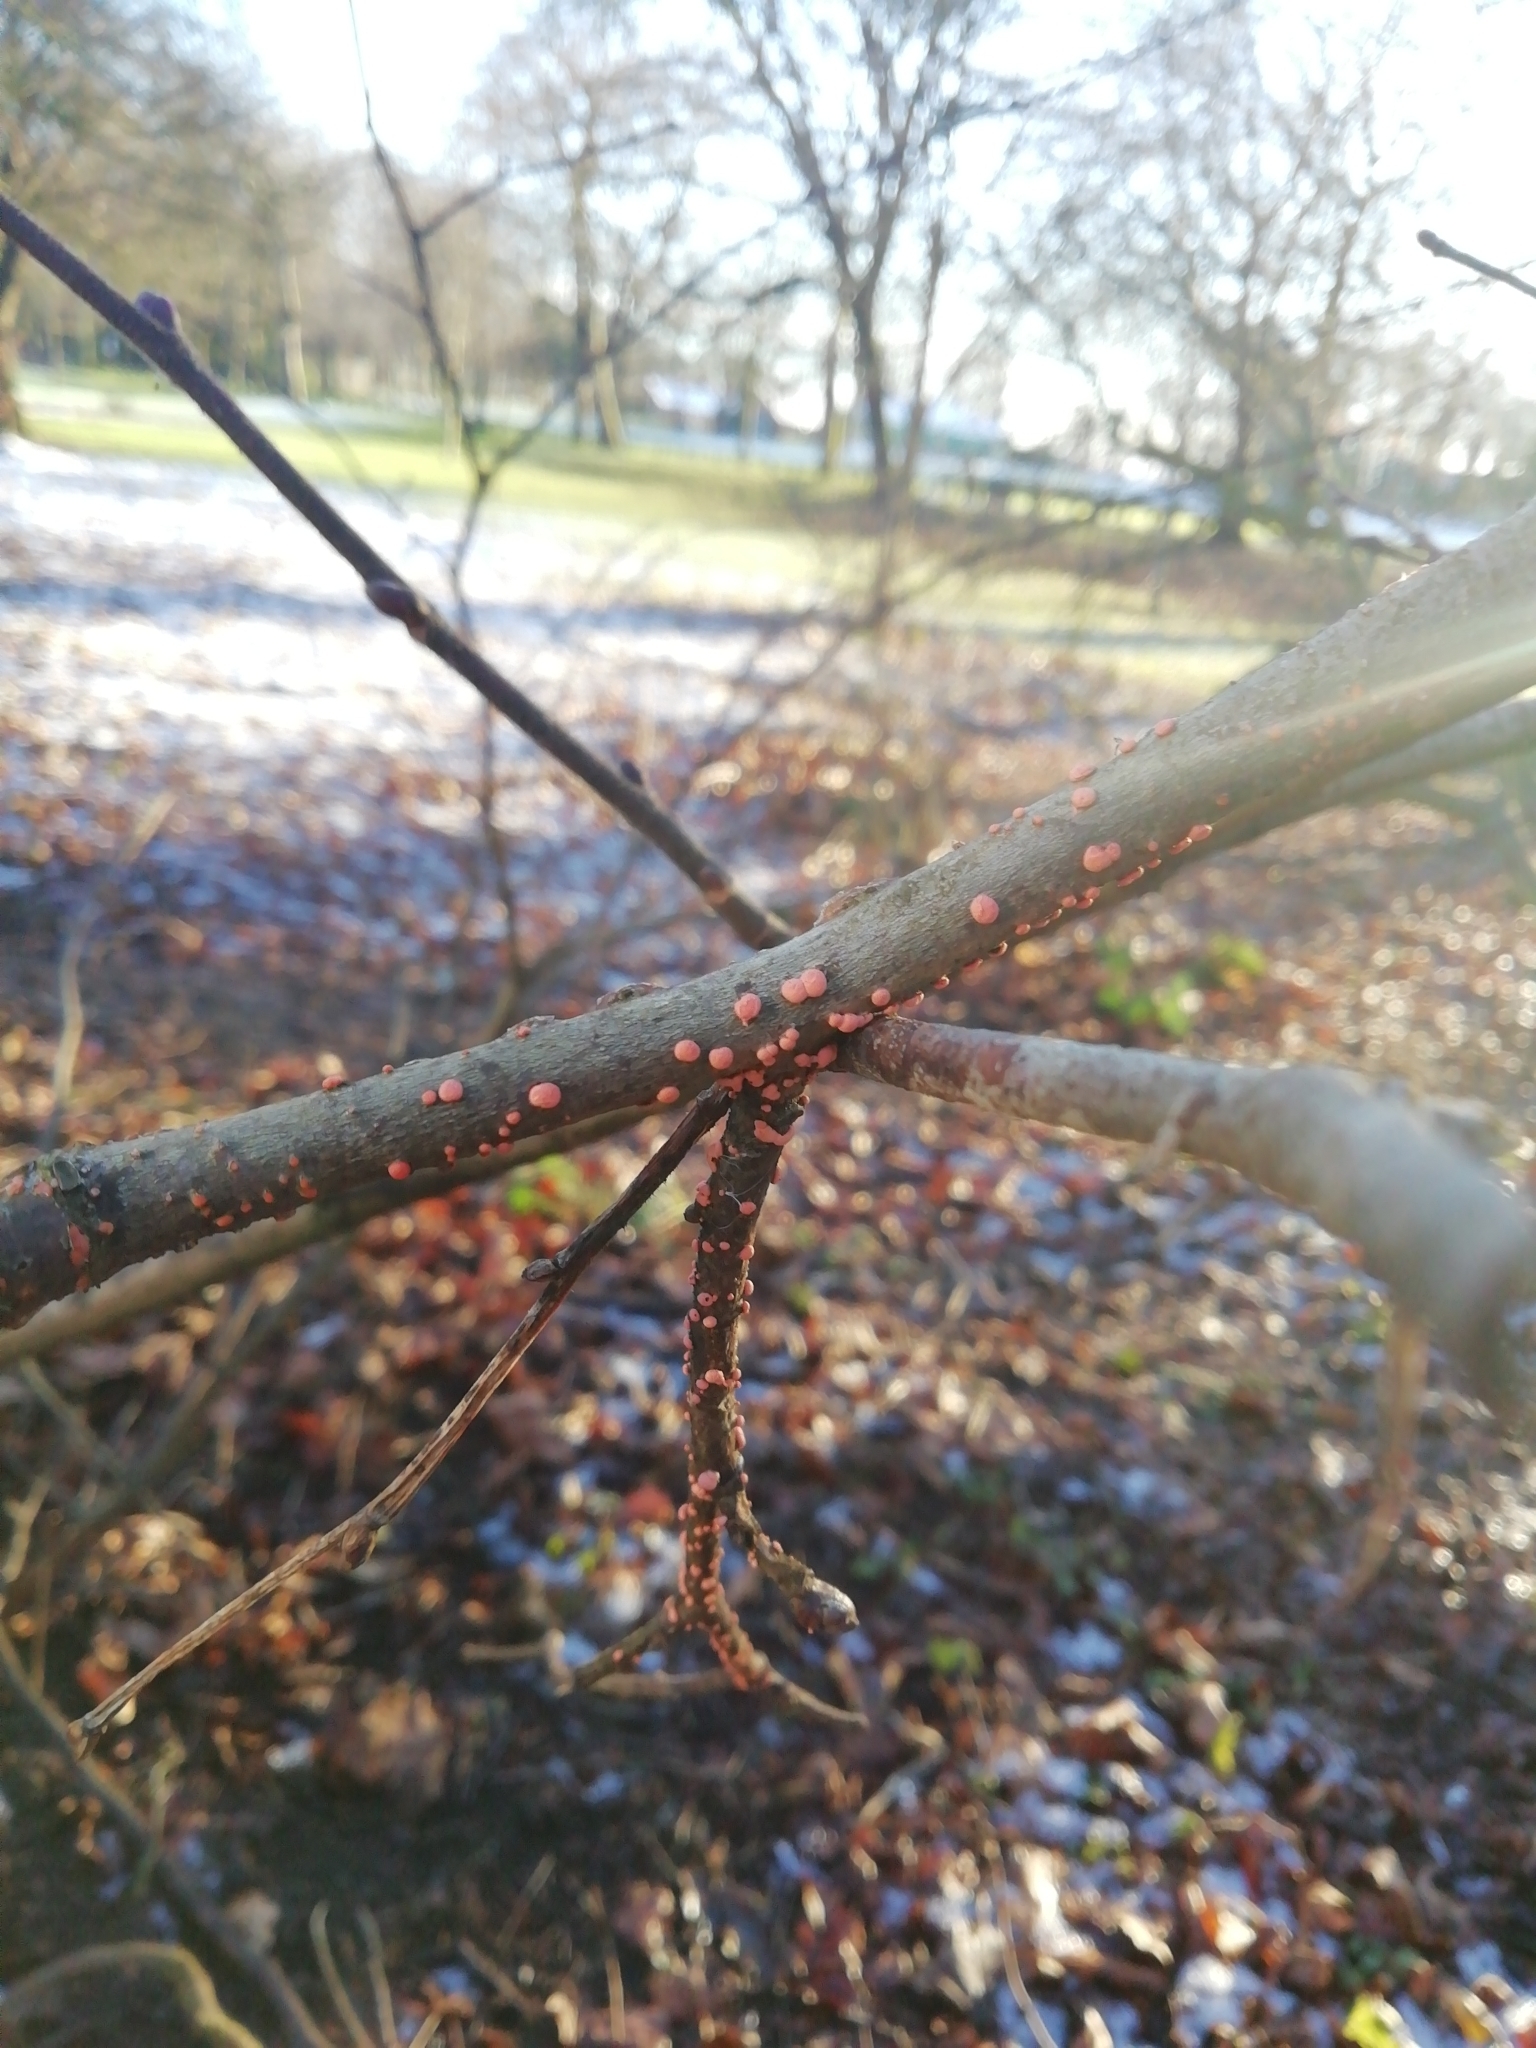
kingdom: Fungi
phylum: Ascomycota
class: Sordariomycetes
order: Hypocreales
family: Nectriaceae
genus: Nectria
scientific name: Nectria cinnabarina
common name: Coral spot
